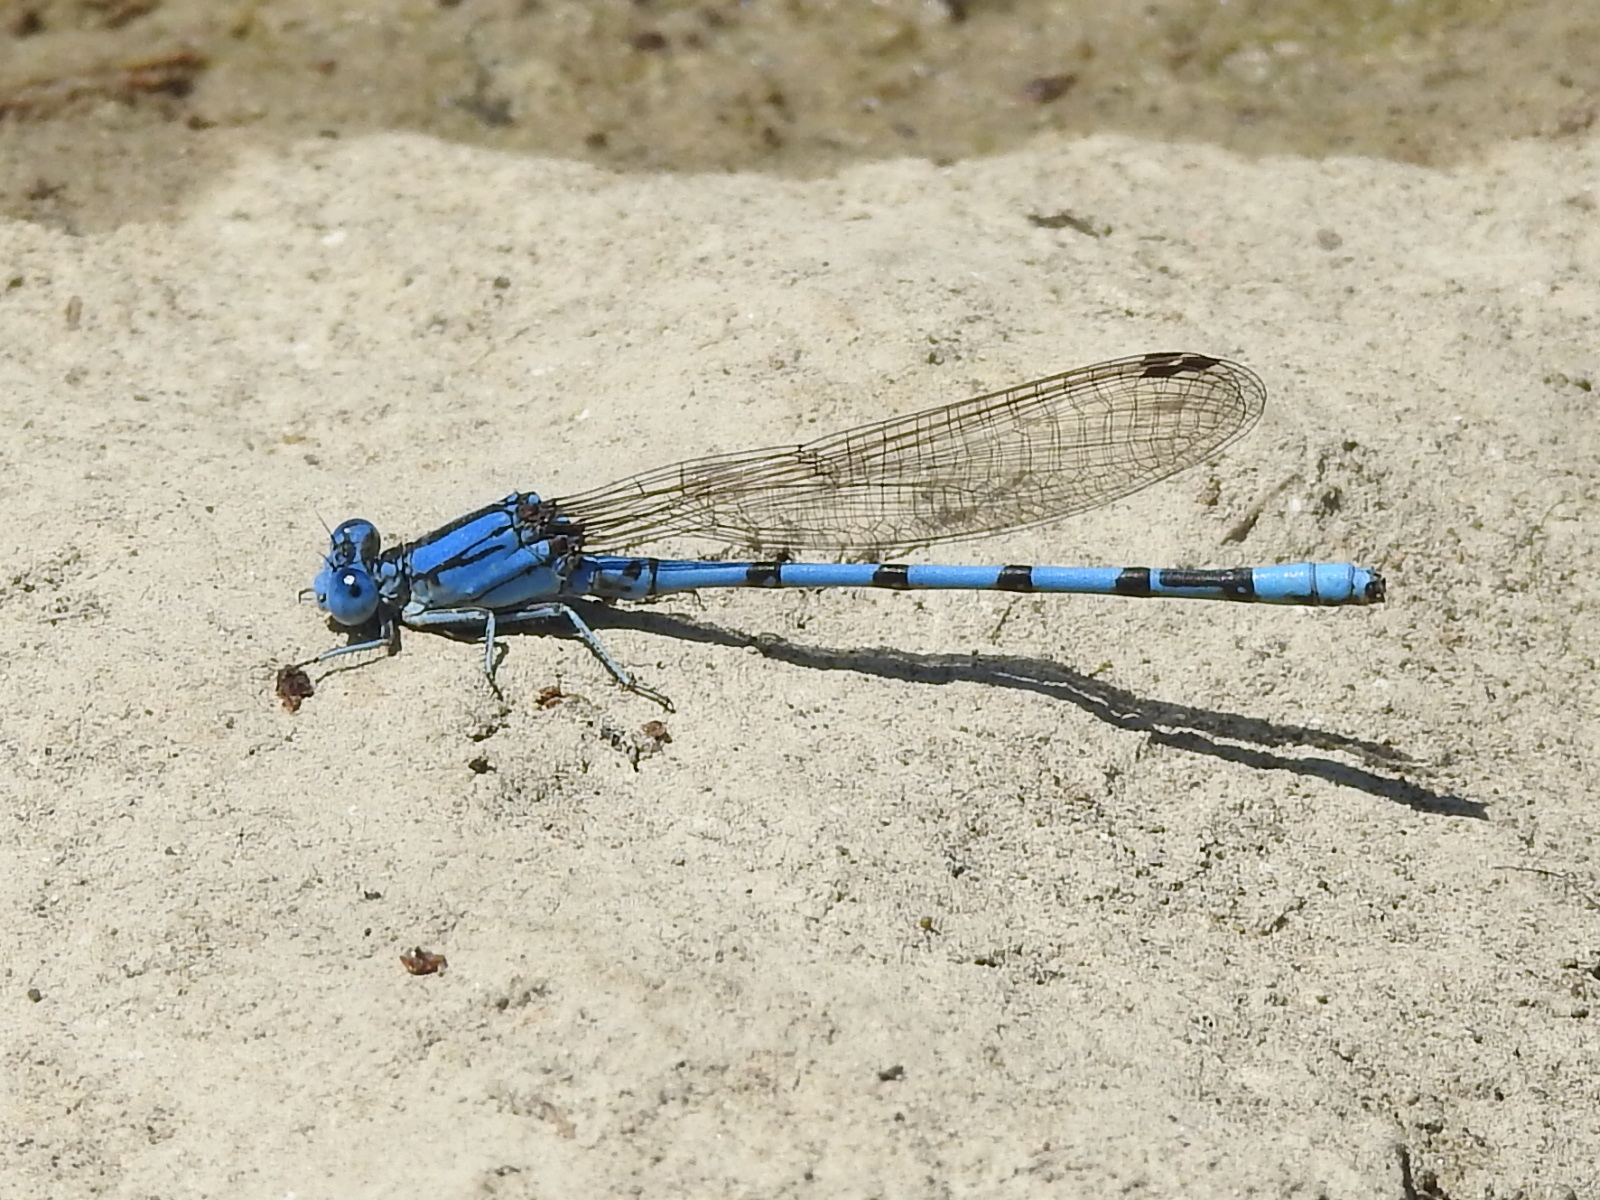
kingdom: Animalia
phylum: Arthropoda
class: Insecta
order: Odonata
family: Coenagrionidae
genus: Argia
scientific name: Argia nahuana
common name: Aztec dancer
